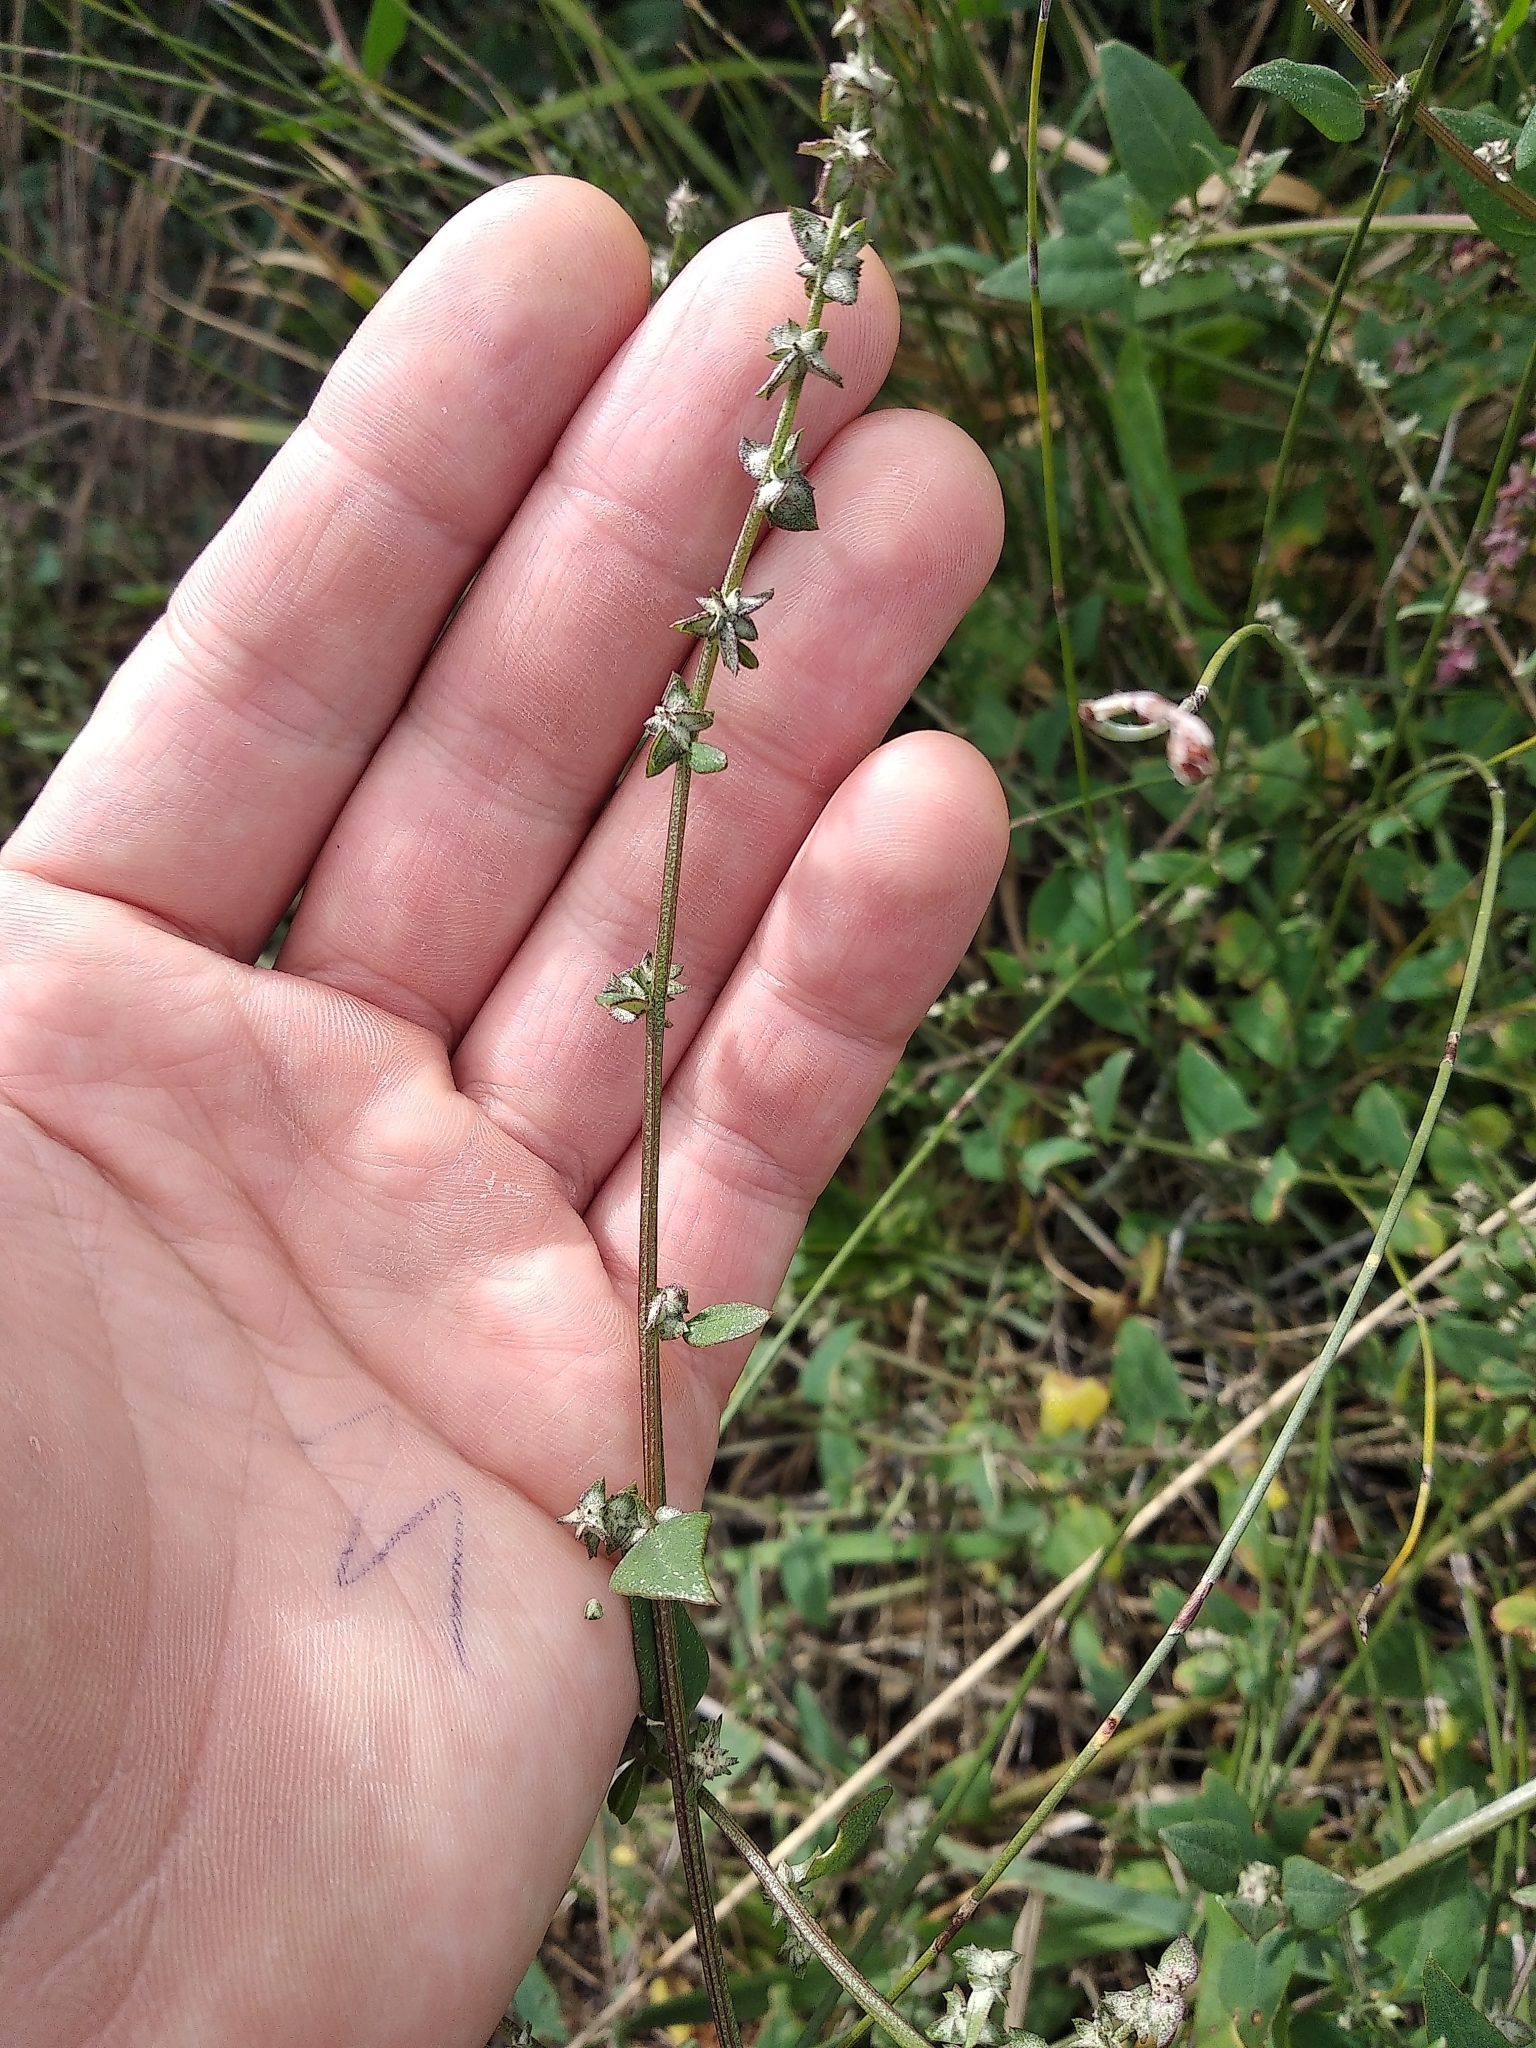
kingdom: Plantae
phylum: Tracheophyta
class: Magnoliopsida
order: Caryophyllales
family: Amaranthaceae
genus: Atriplex
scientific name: Atriplex prostrata
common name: Spear-leaved orache
